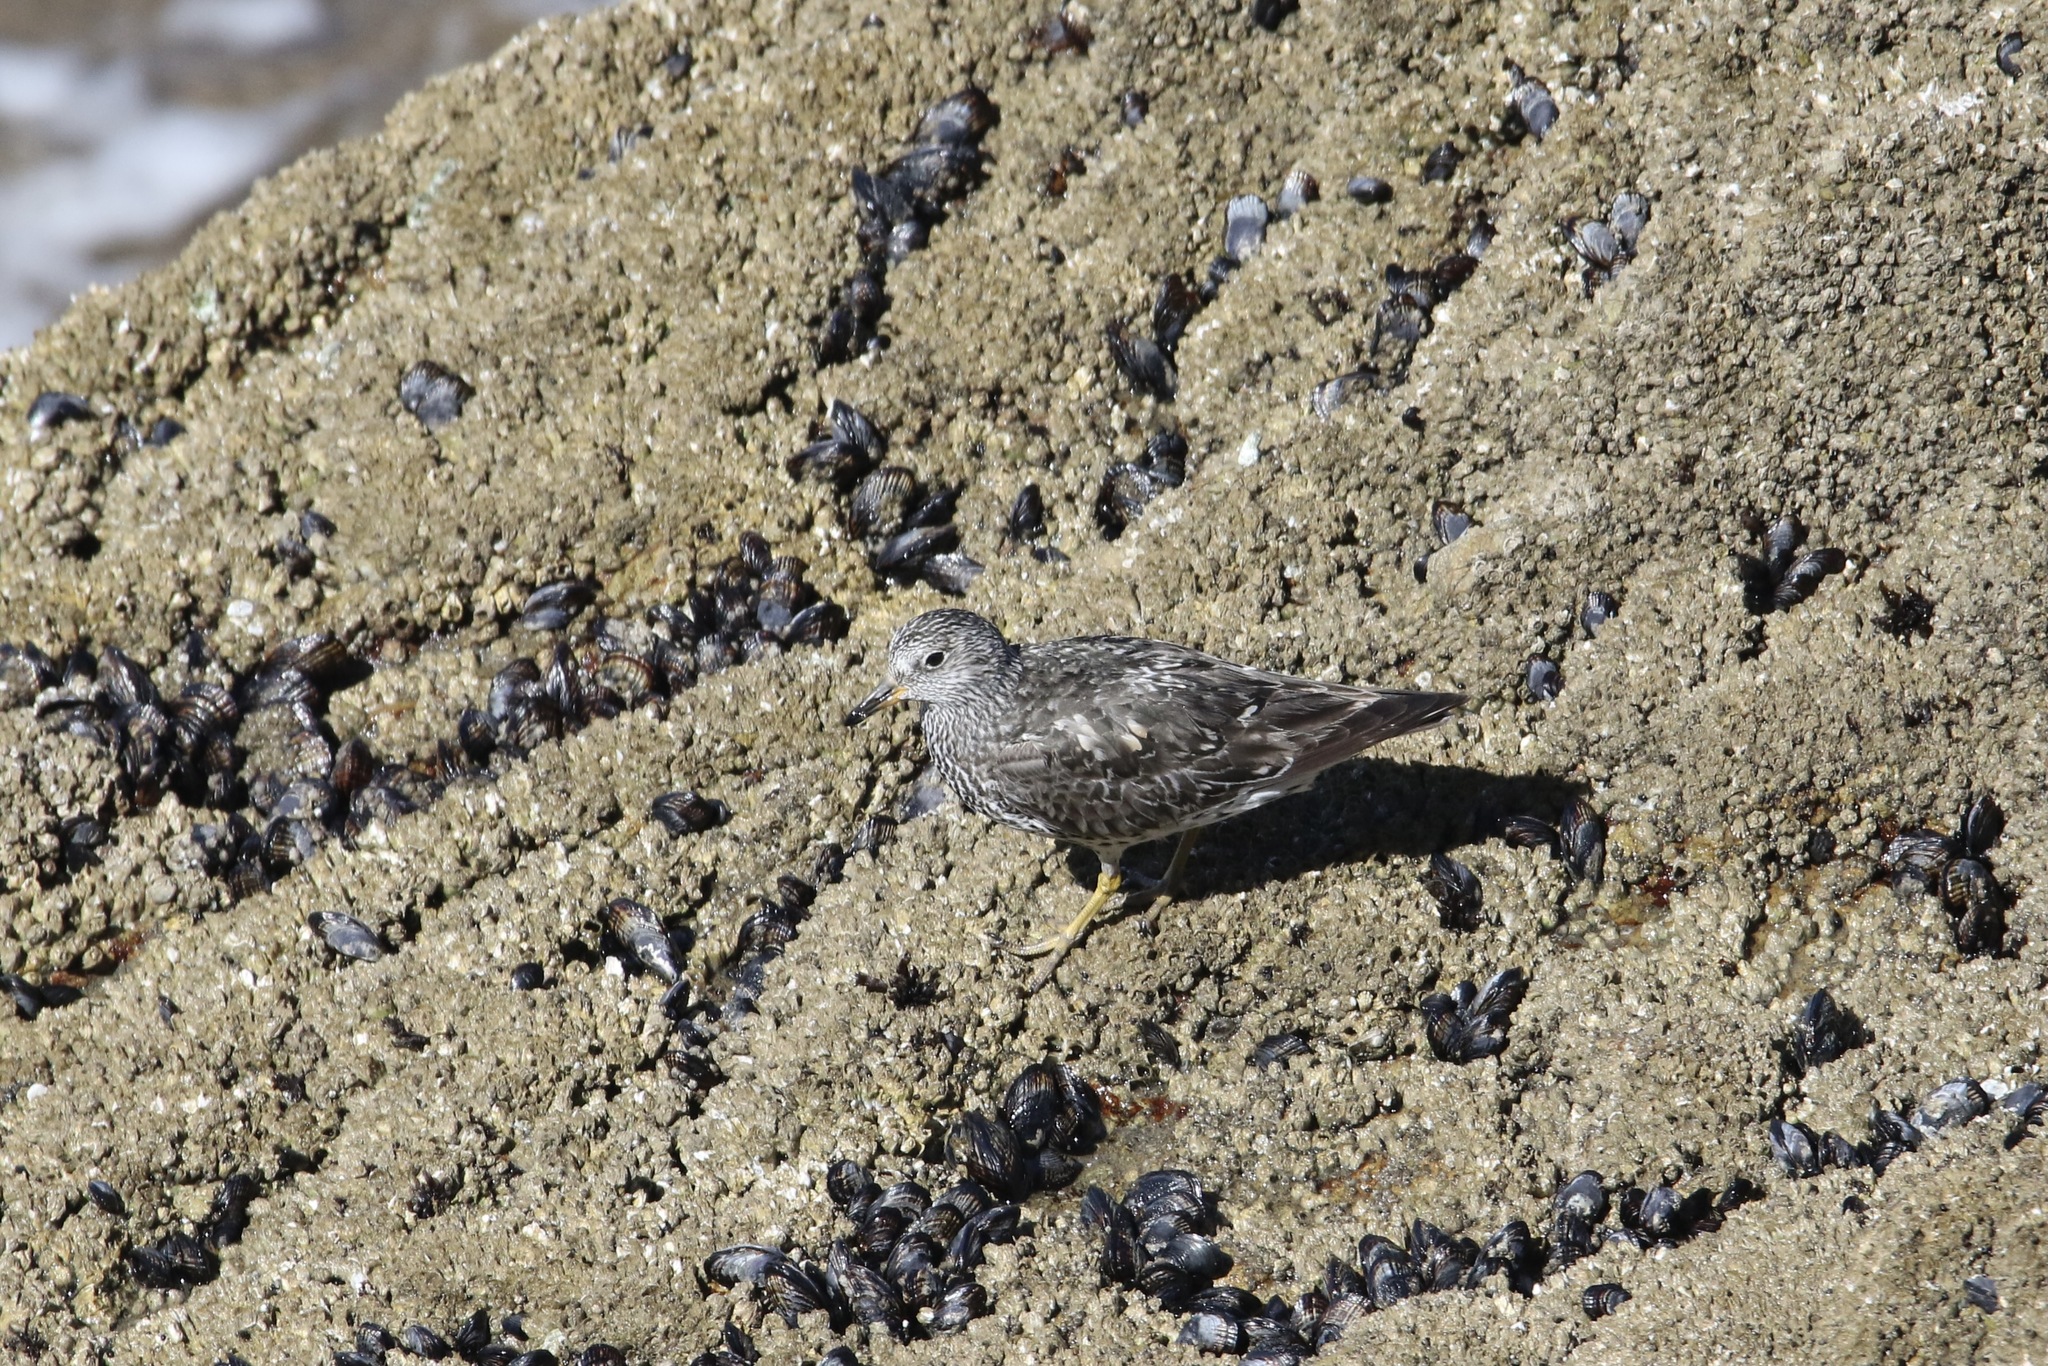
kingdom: Animalia
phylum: Chordata
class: Aves
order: Charadriiformes
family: Scolopacidae
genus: Calidris
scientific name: Calidris virgata
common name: Surfbird
